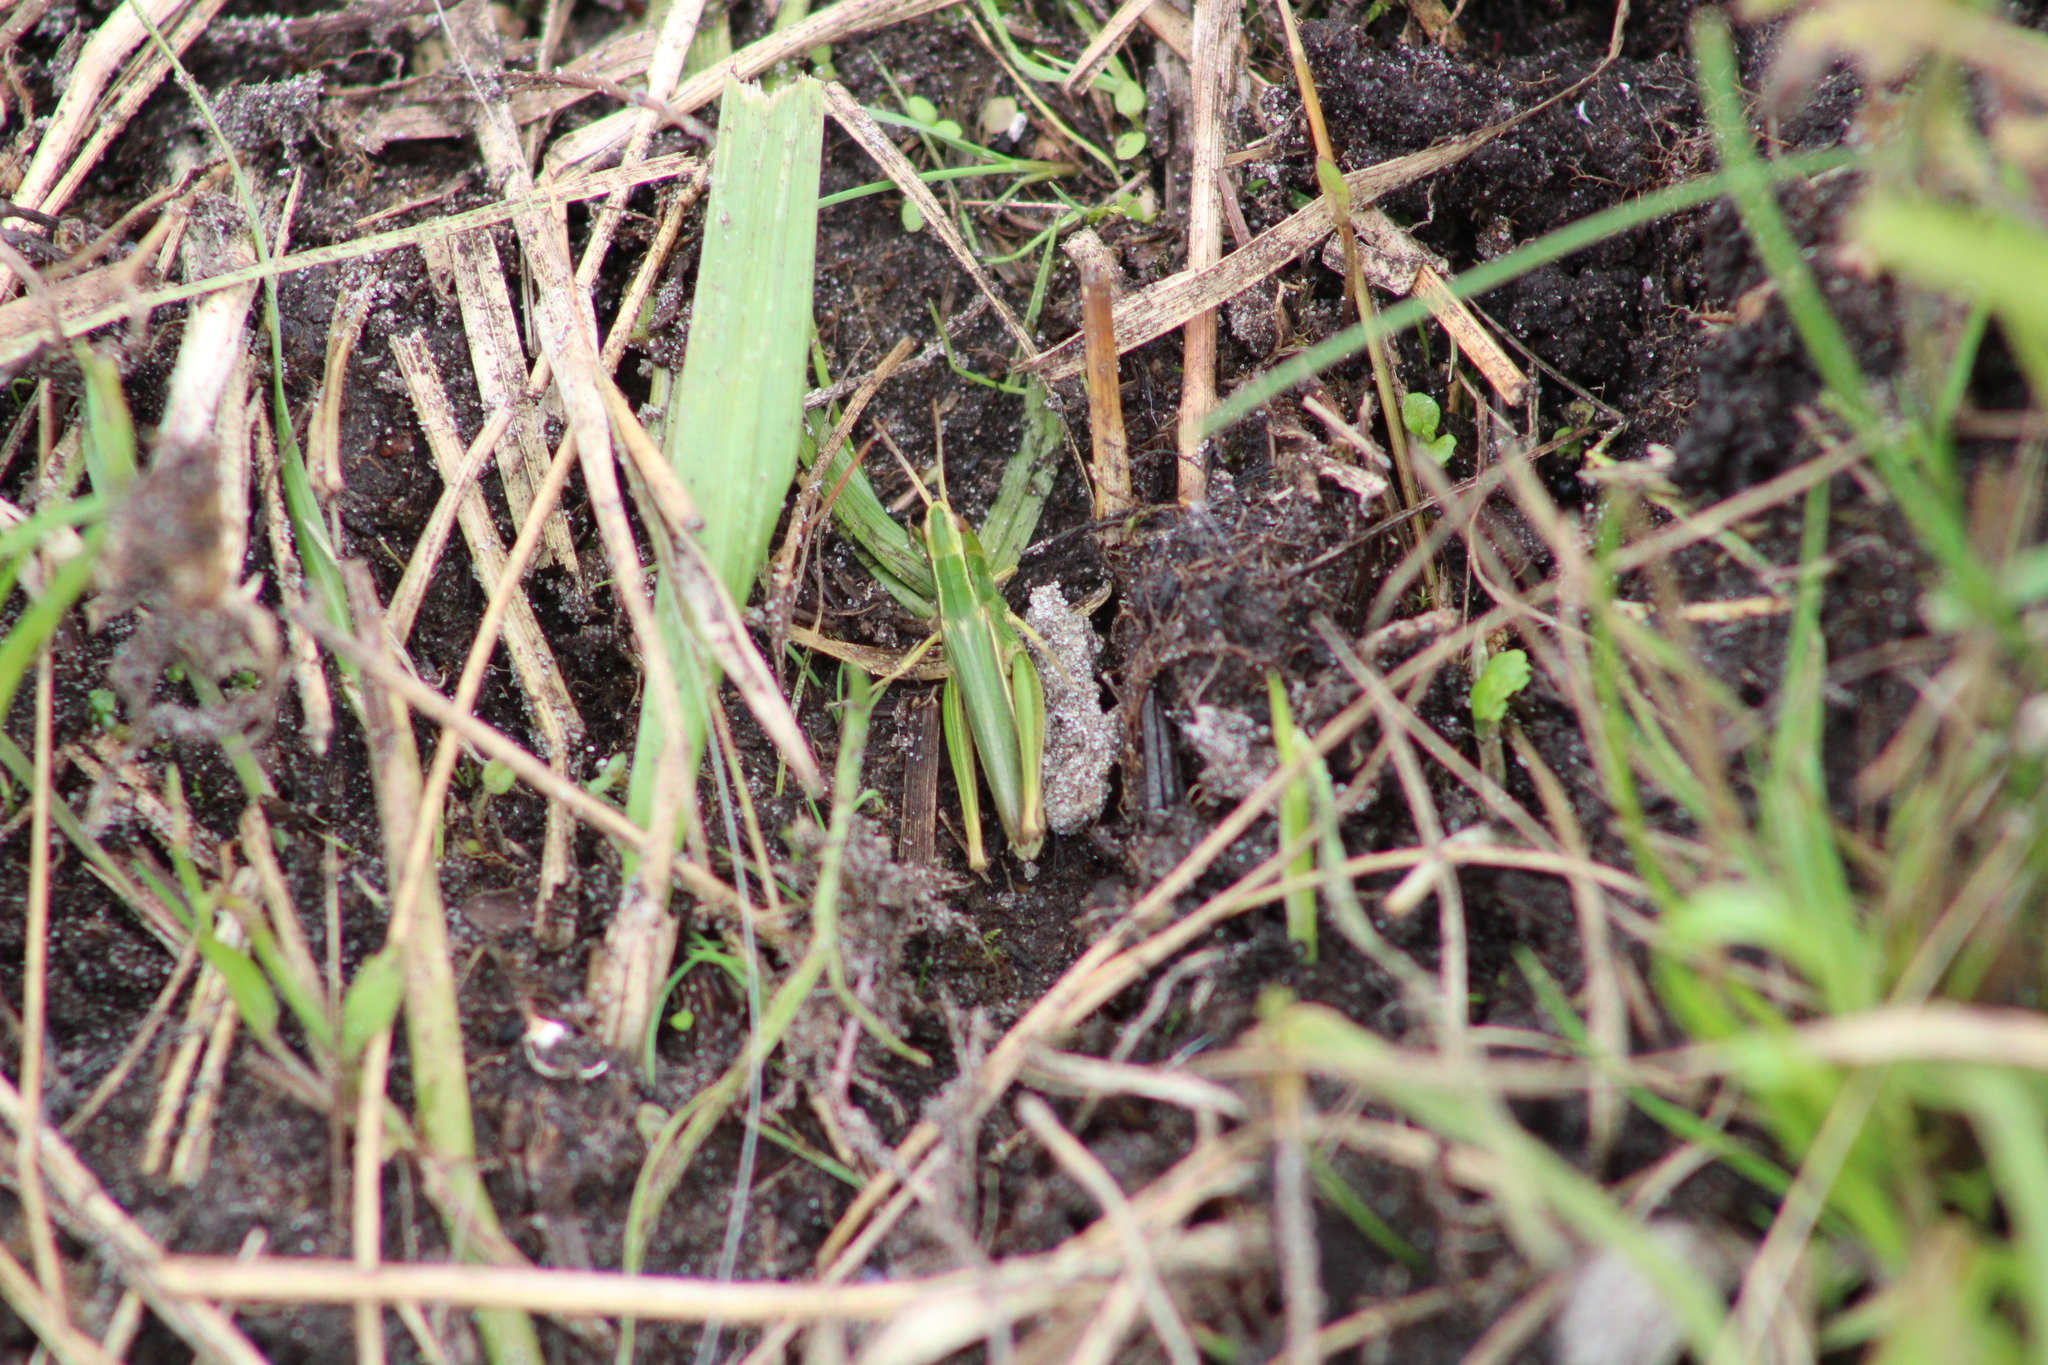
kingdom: Animalia
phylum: Arthropoda
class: Insecta
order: Orthoptera
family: Acrididae
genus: Chorthippus
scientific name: Chorthippus albomarginatus
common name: Lesser marsh grasshopper
